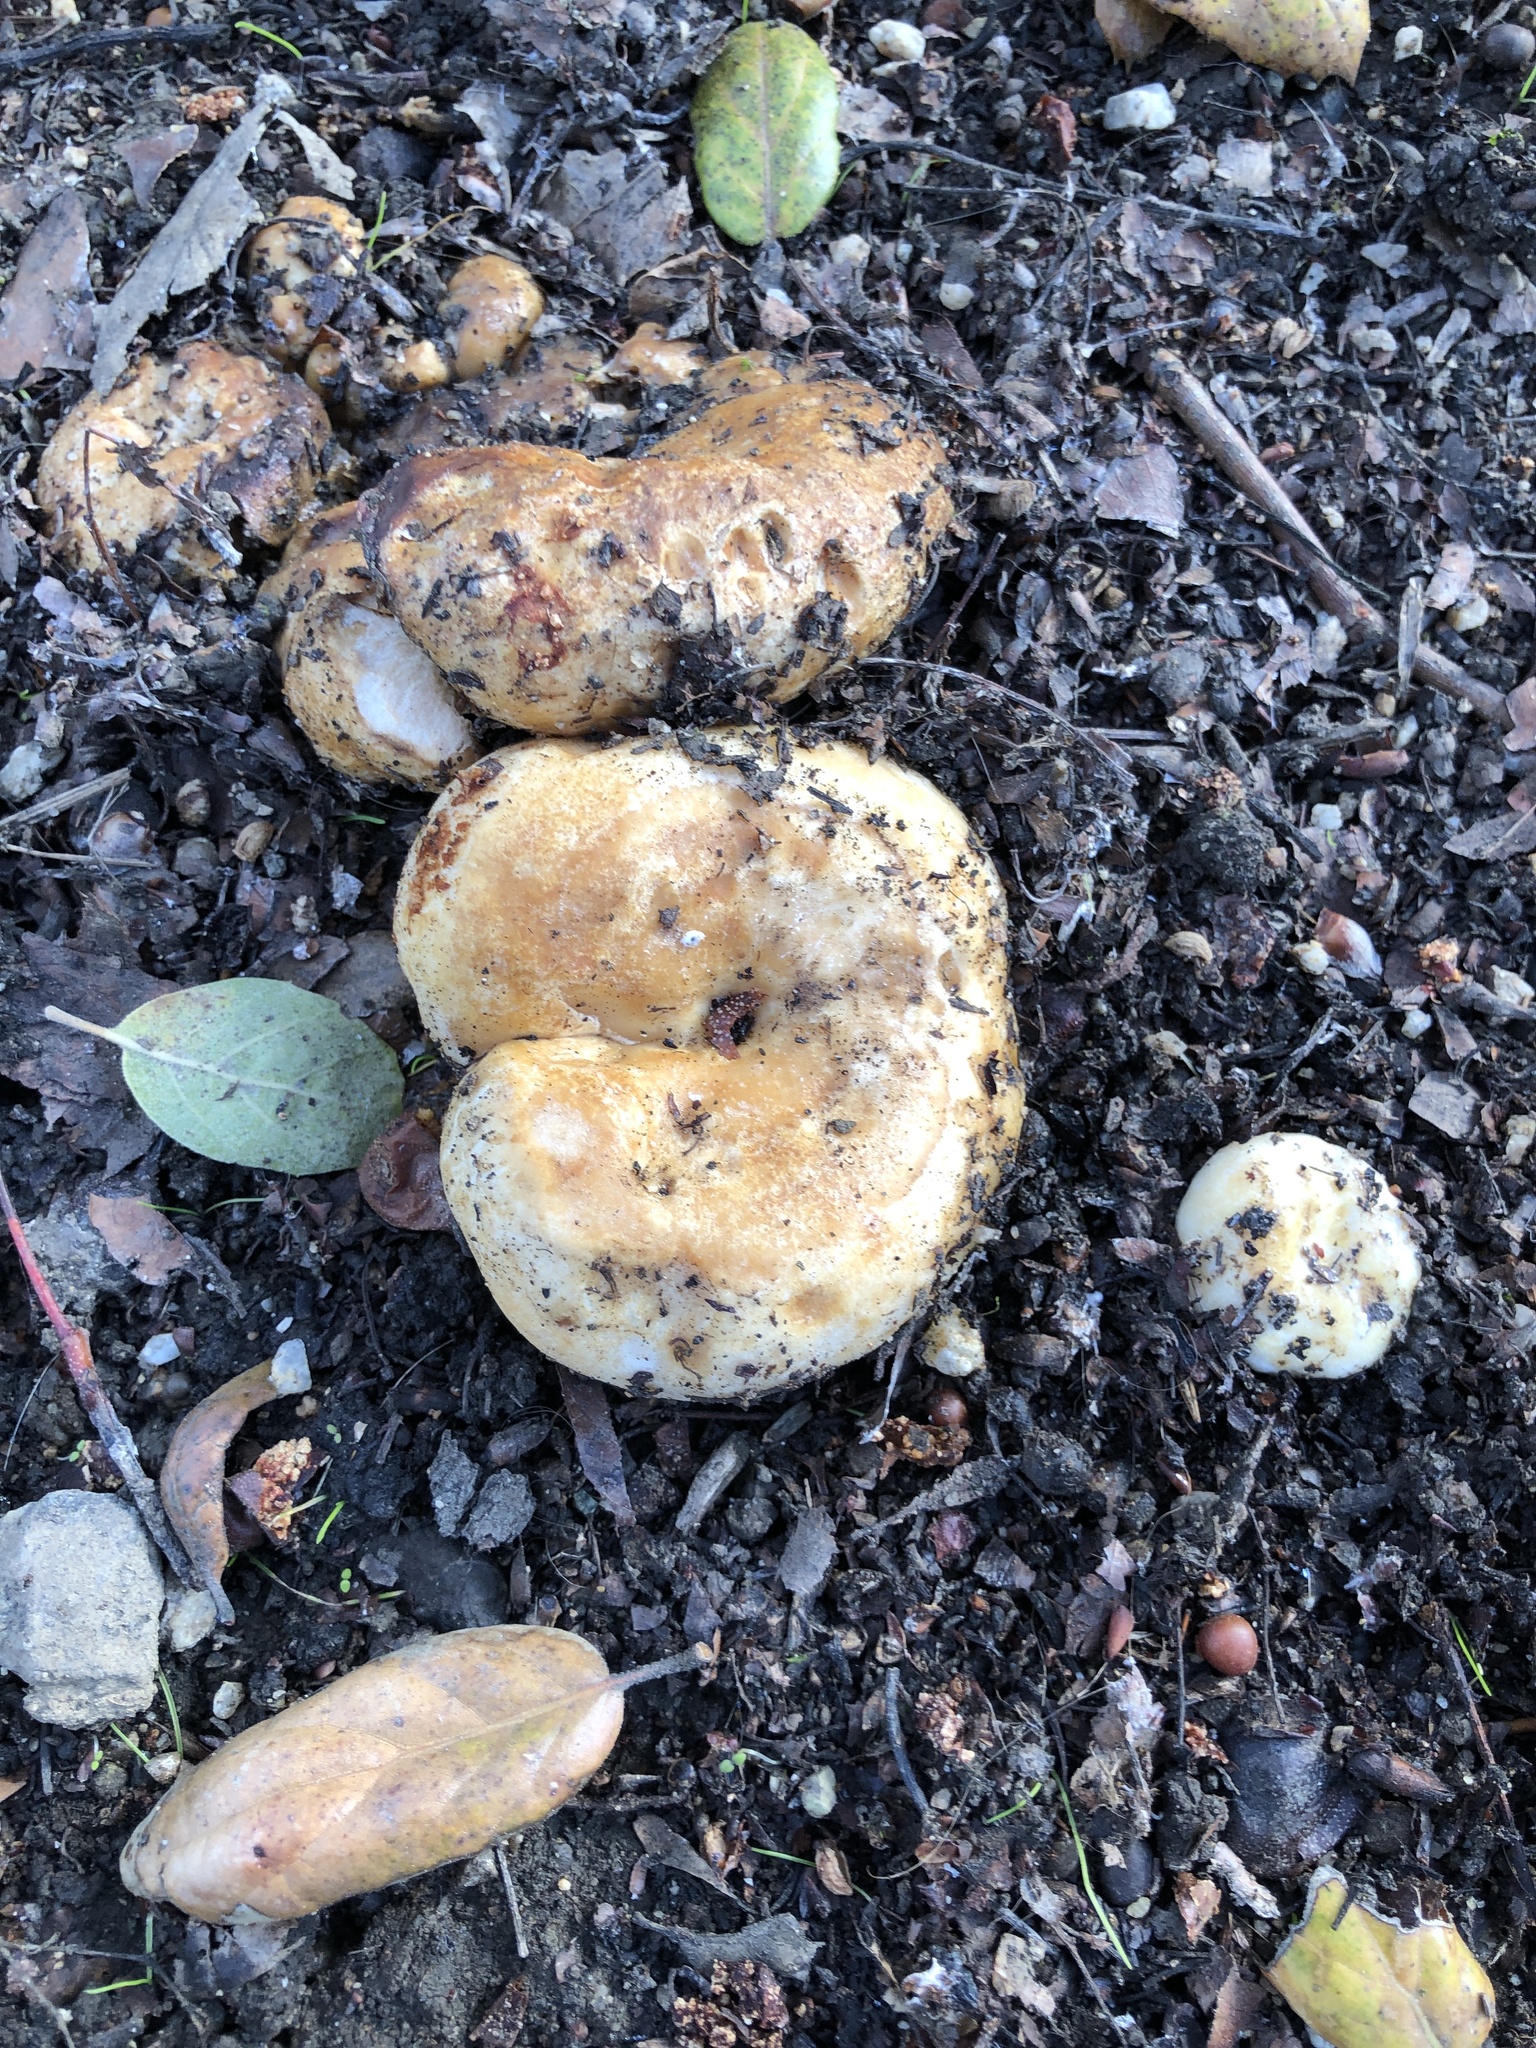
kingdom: Fungi
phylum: Basidiomycota
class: Agaricomycetes
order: Russulales
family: Russulaceae
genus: Lactarius
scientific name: Lactarius alnicola
